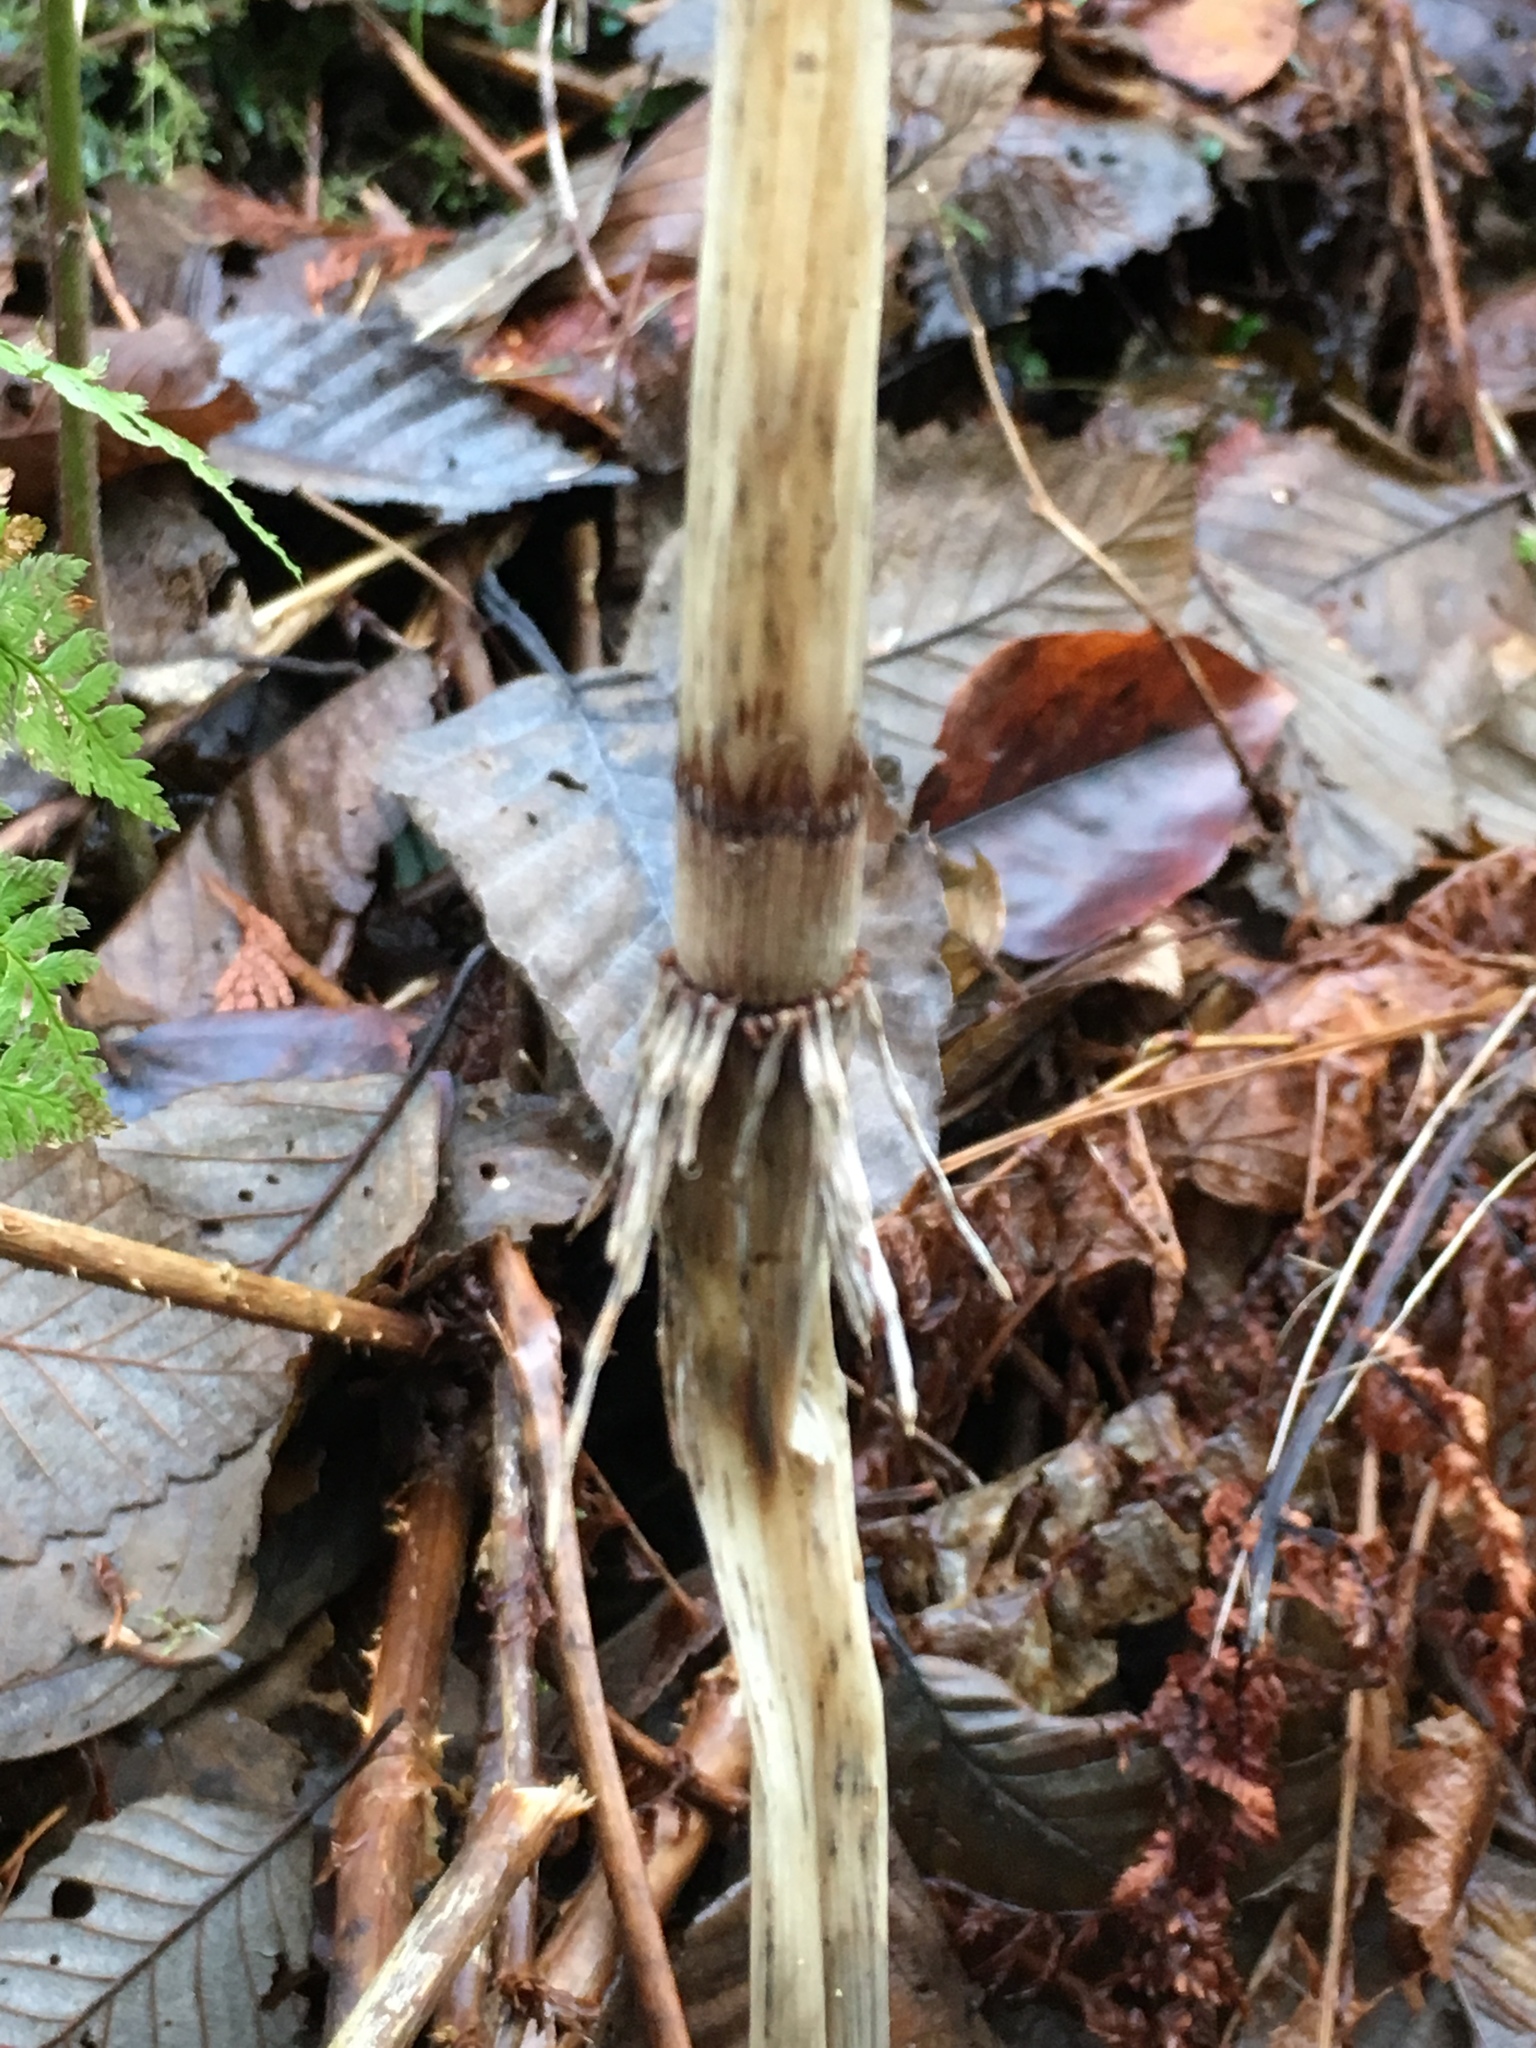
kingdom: Plantae
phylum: Tracheophyta
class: Polypodiopsida
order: Equisetales
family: Equisetaceae
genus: Equisetum
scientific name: Equisetum braunii
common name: Braun's horsetail
